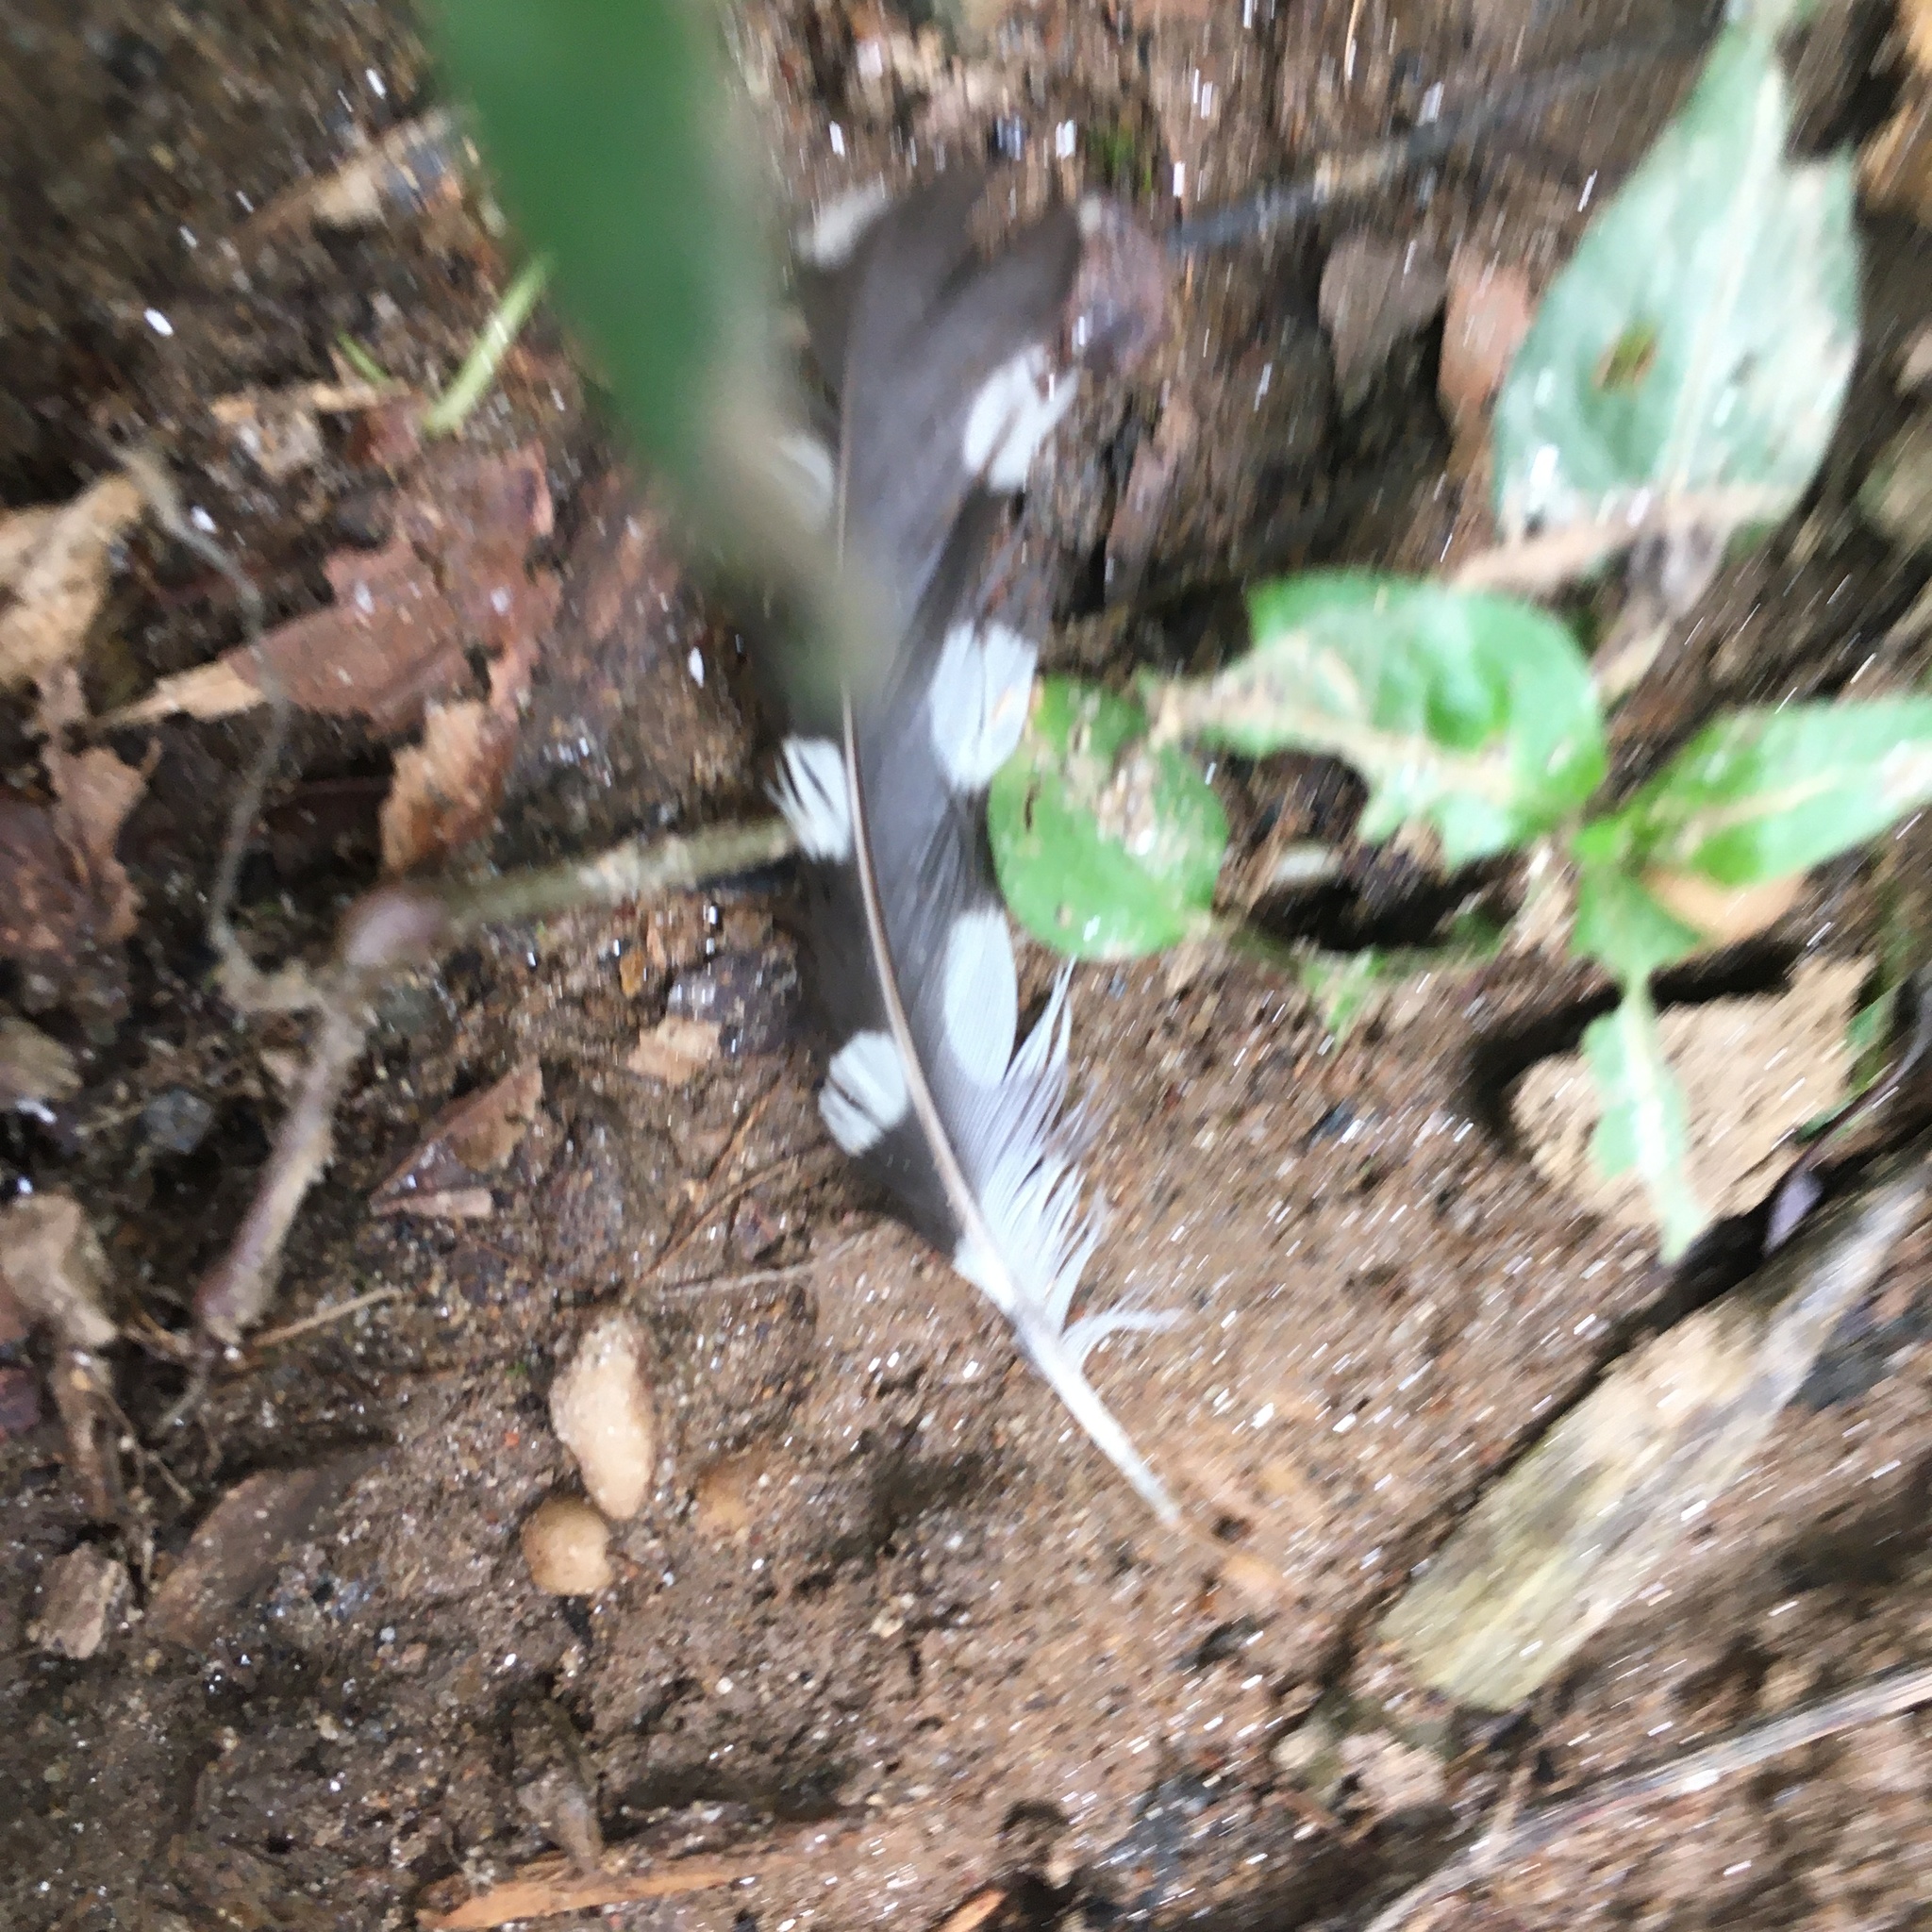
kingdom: Animalia
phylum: Chordata
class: Aves
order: Piciformes
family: Picidae
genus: Dryobates
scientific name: Dryobates
